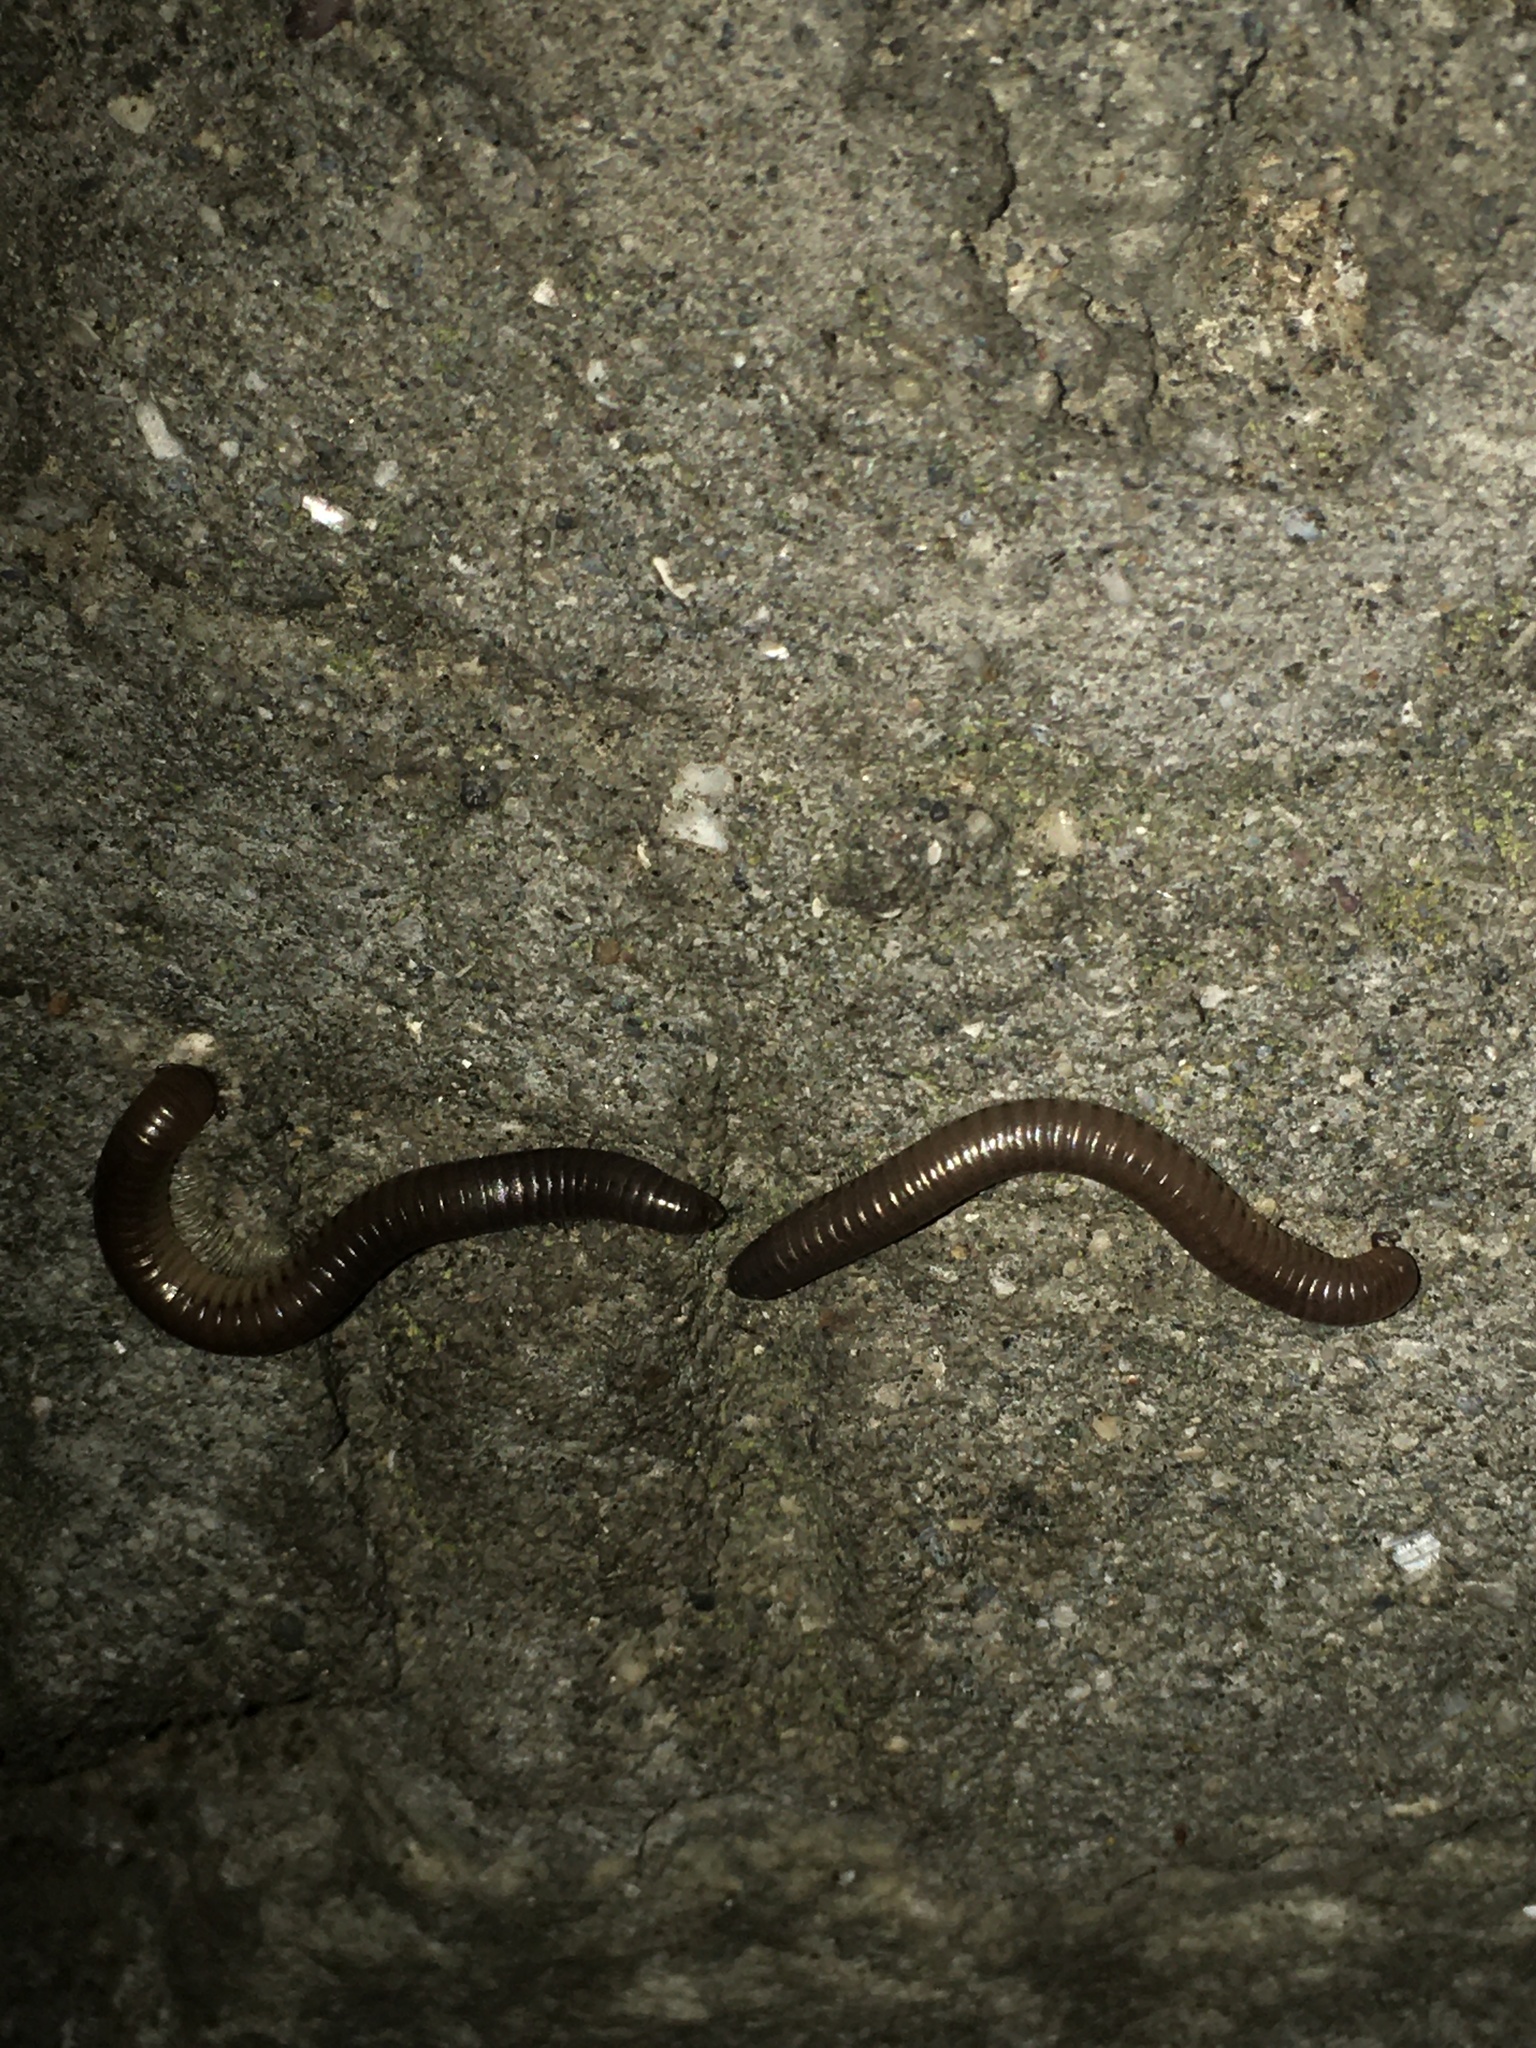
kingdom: Animalia
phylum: Arthropoda
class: Diplopoda
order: Julida
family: Julidae
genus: Pachyiulus
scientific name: Pachyiulus flavipes
